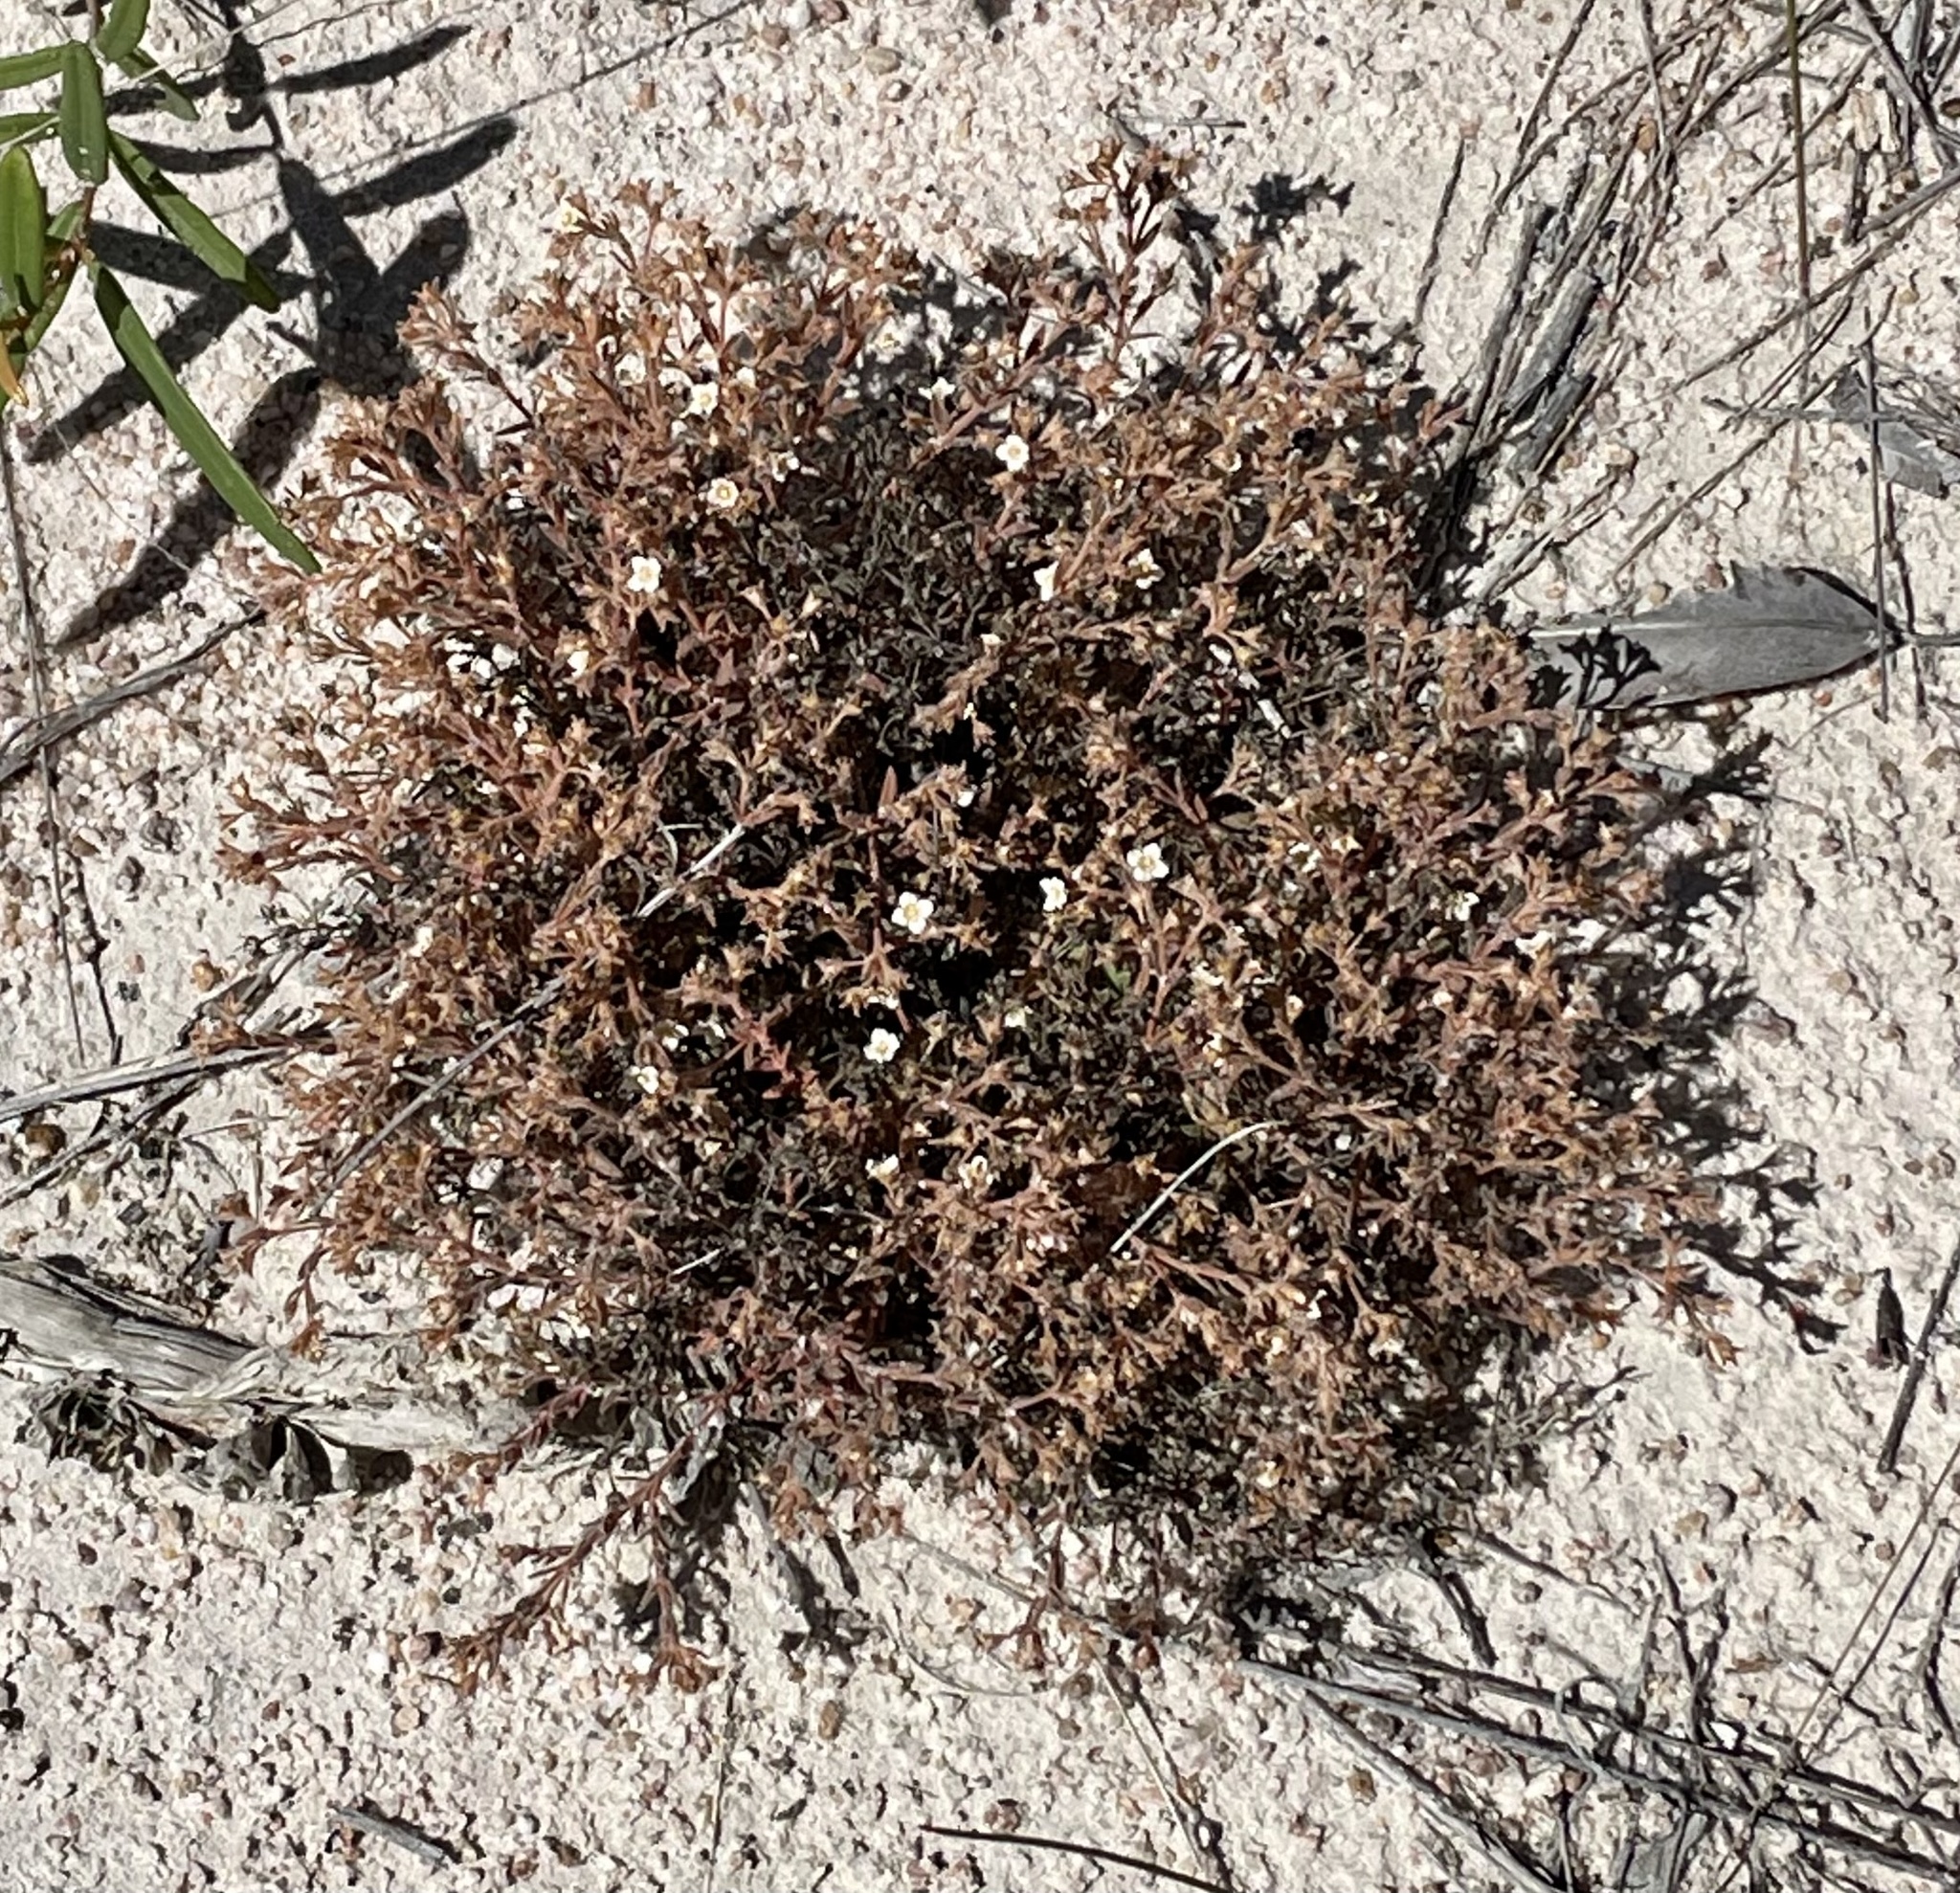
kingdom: Plantae
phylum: Tracheophyta
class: Magnoliopsida
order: Gentianales
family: Loganiaceae
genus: Mitrasacme
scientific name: Mitrasacme paludosa
